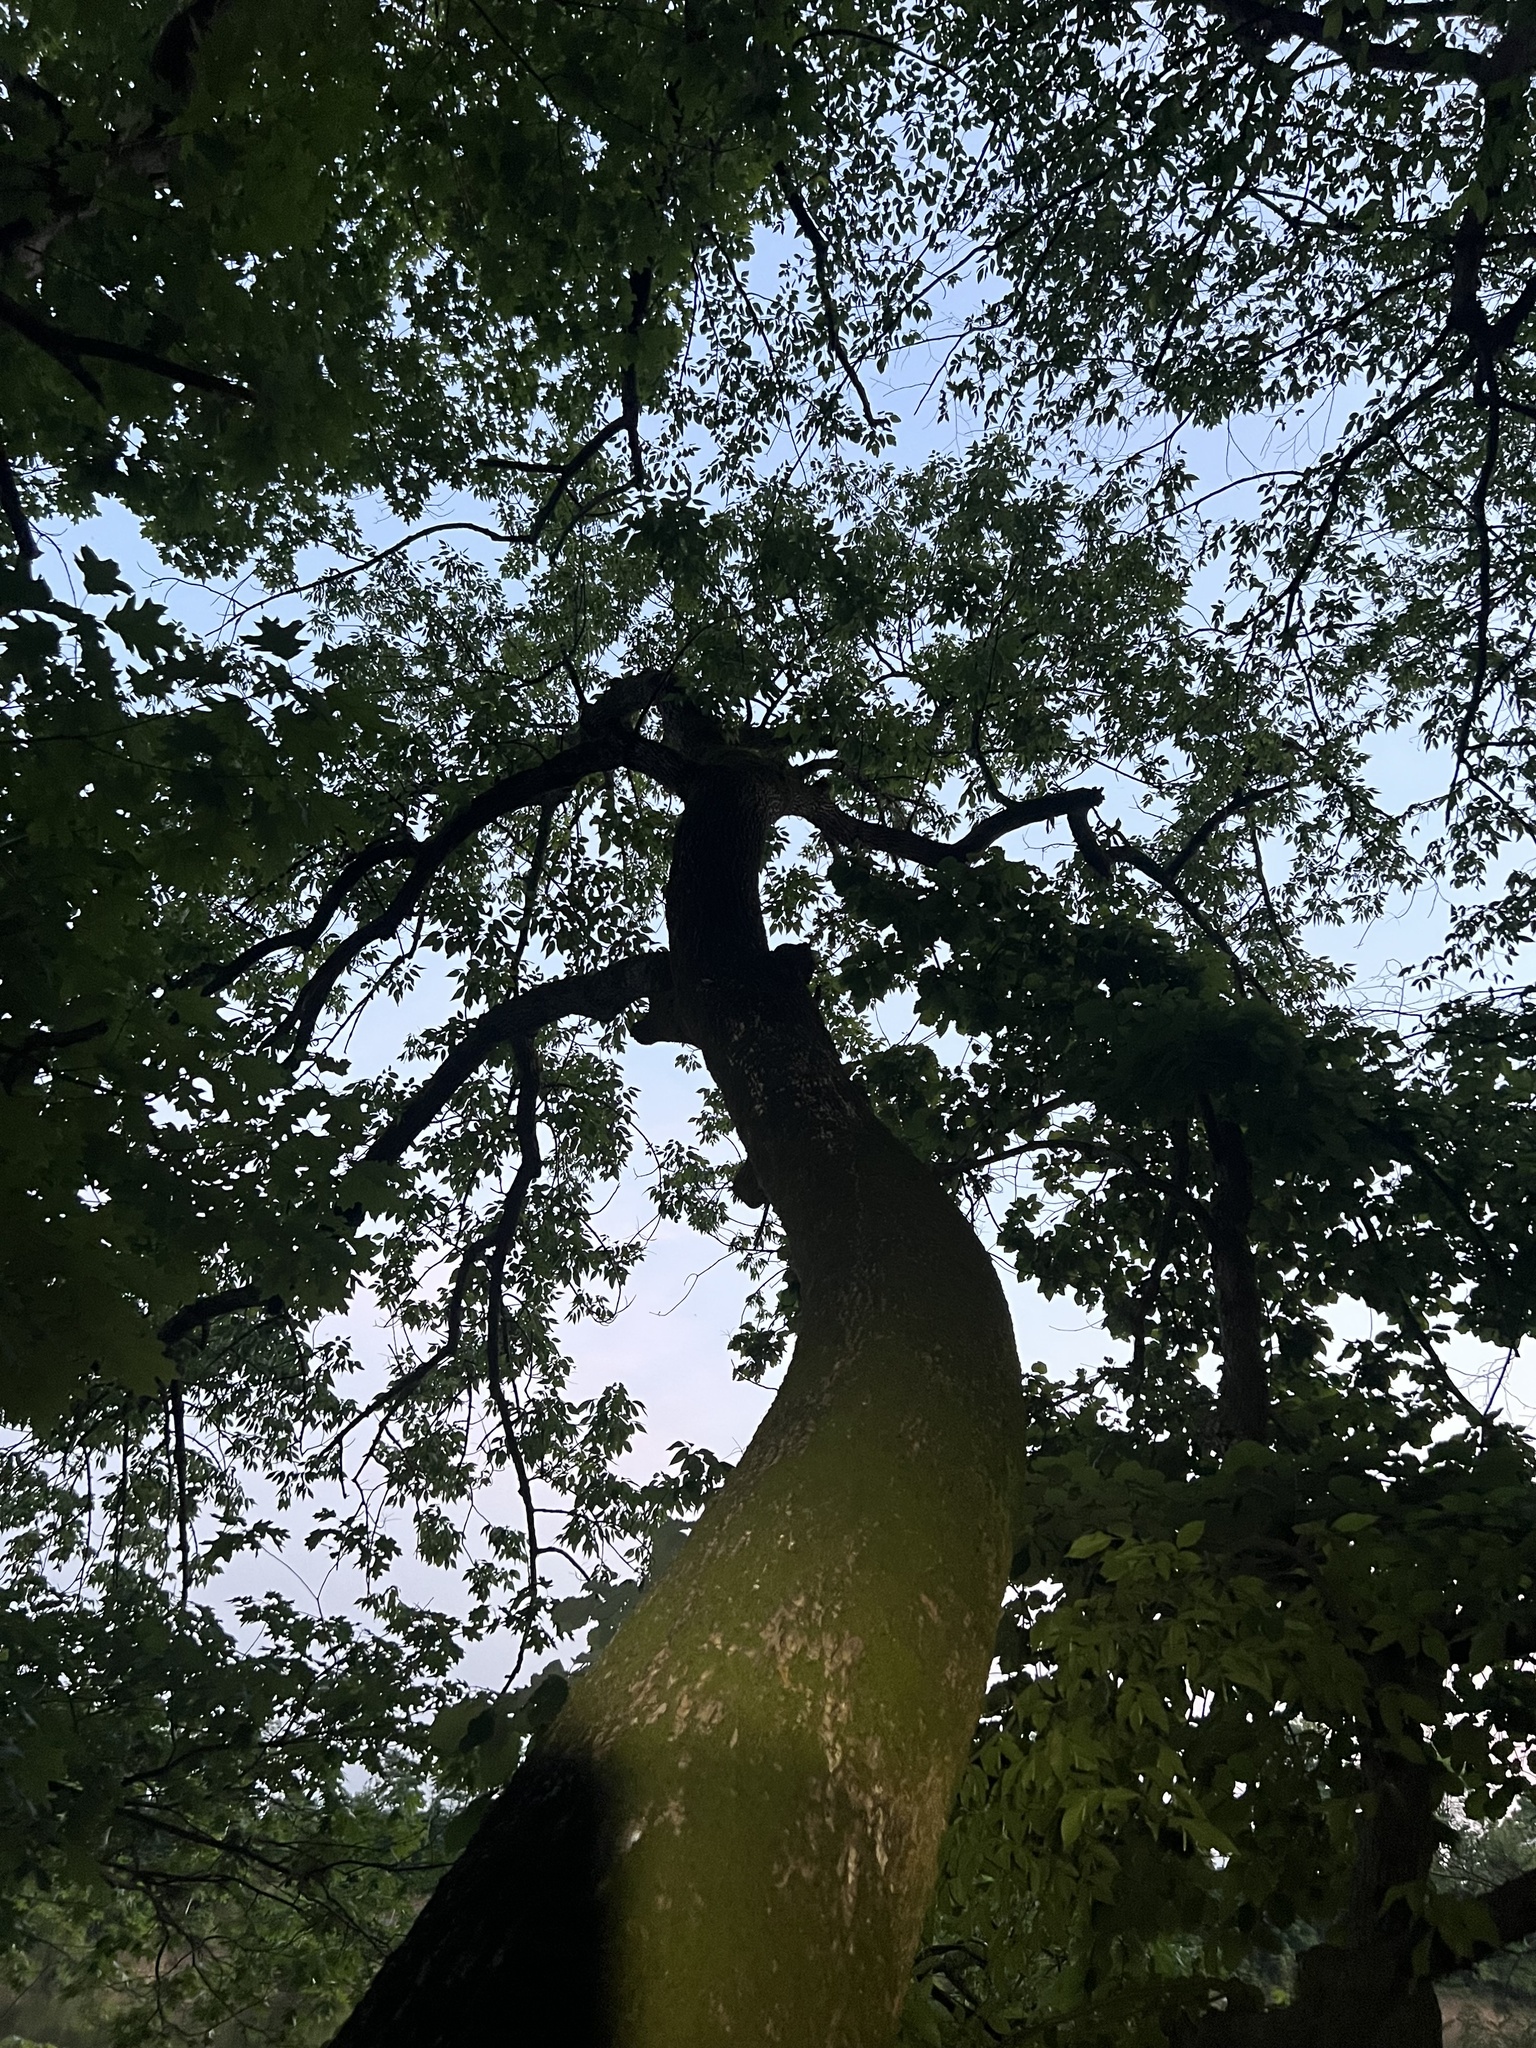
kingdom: Plantae
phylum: Tracheophyta
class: Magnoliopsida
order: Rosales
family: Ulmaceae
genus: Ulmus
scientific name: Ulmus serotina
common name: September elm
